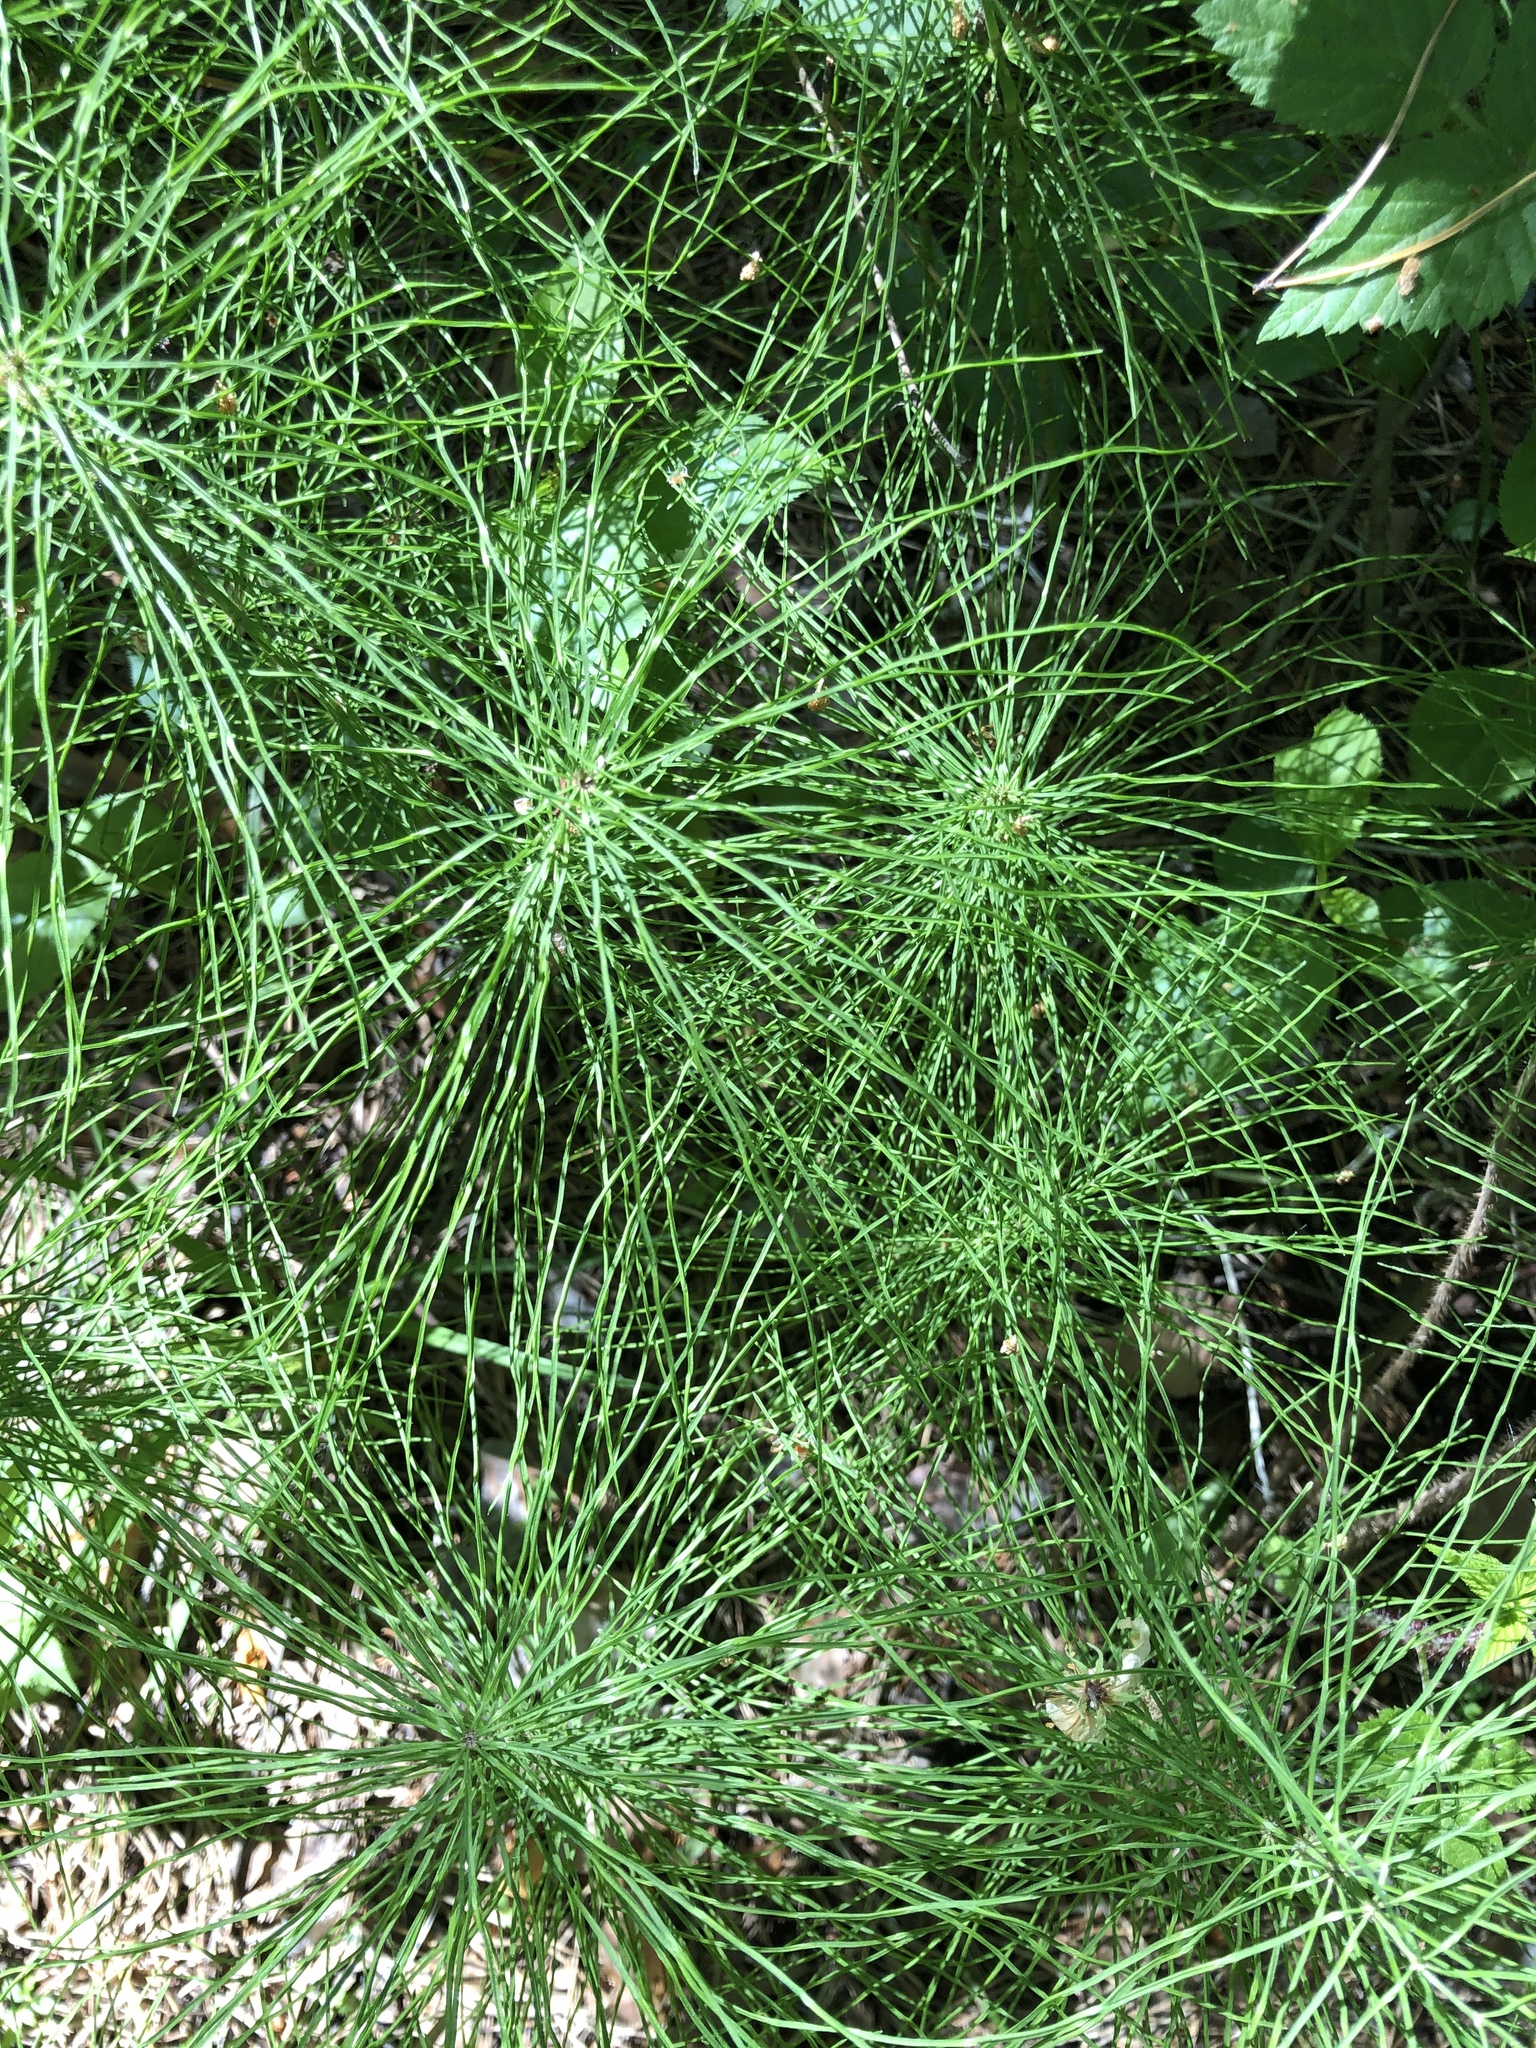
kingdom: Plantae
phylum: Tracheophyta
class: Polypodiopsida
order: Equisetales
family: Equisetaceae
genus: Equisetum
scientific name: Equisetum pratense
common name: Meadow horsetail
